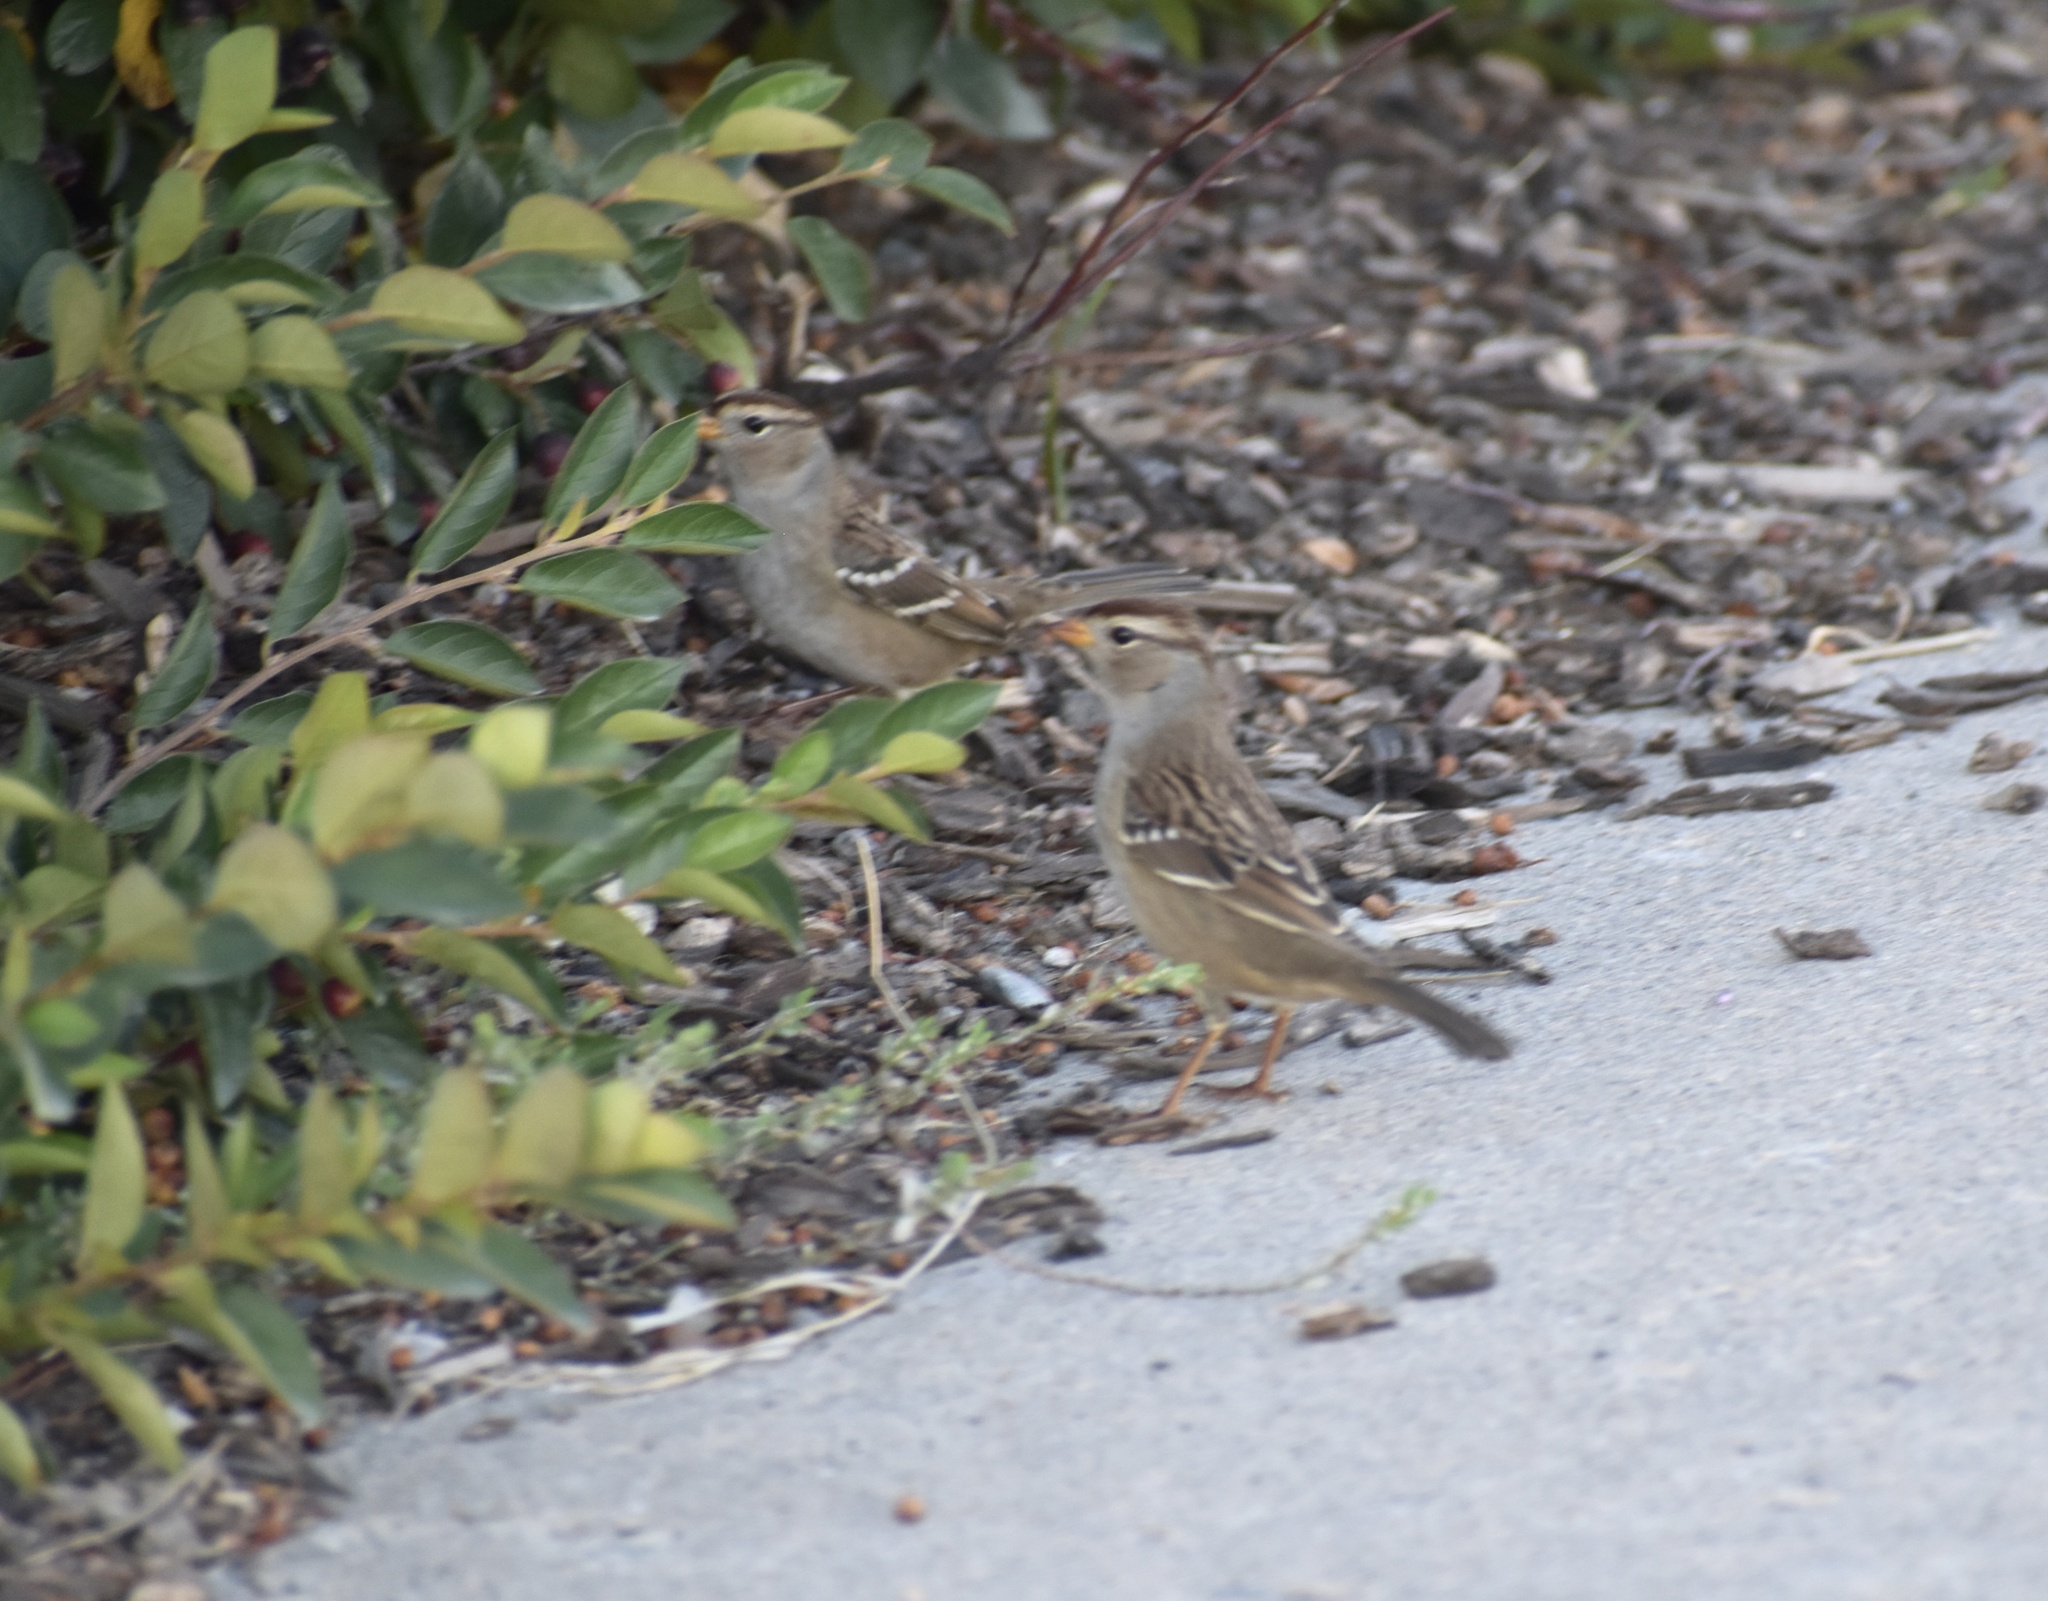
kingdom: Animalia
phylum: Chordata
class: Aves
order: Passeriformes
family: Passerellidae
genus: Zonotrichia
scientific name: Zonotrichia leucophrys
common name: White-crowned sparrow
